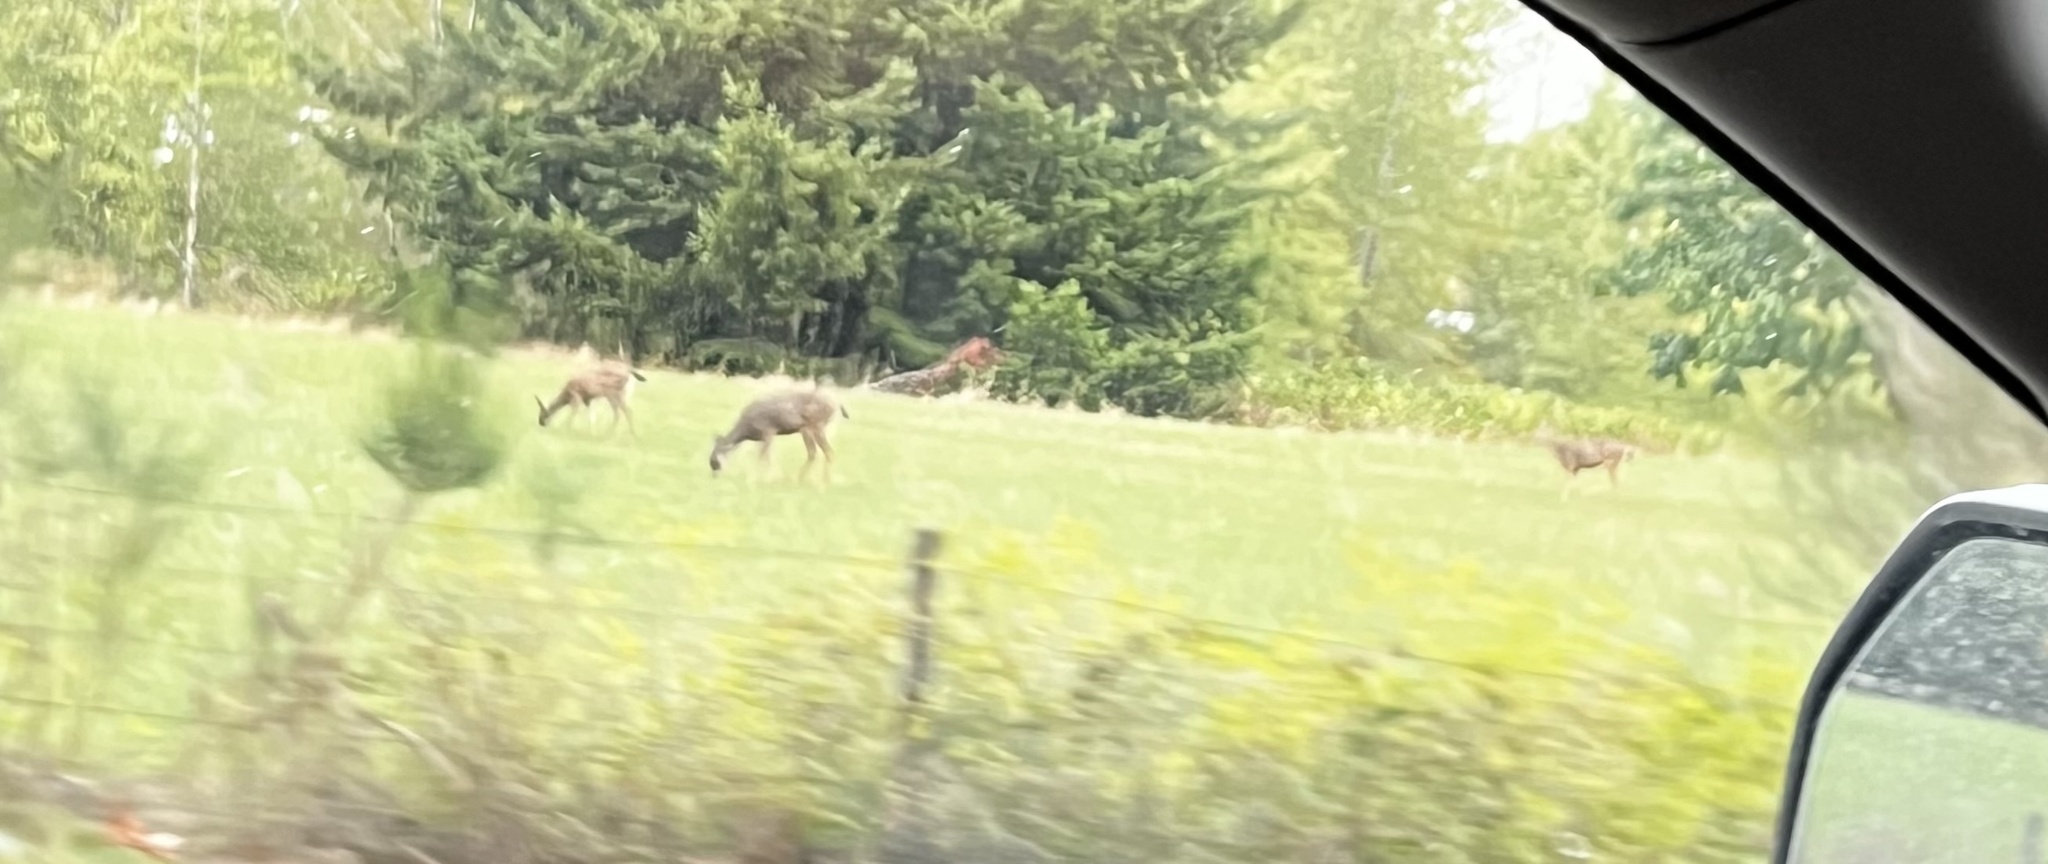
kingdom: Animalia
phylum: Chordata
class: Mammalia
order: Artiodactyla
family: Cervidae
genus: Odocoileus
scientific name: Odocoileus hemionus
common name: Mule deer
